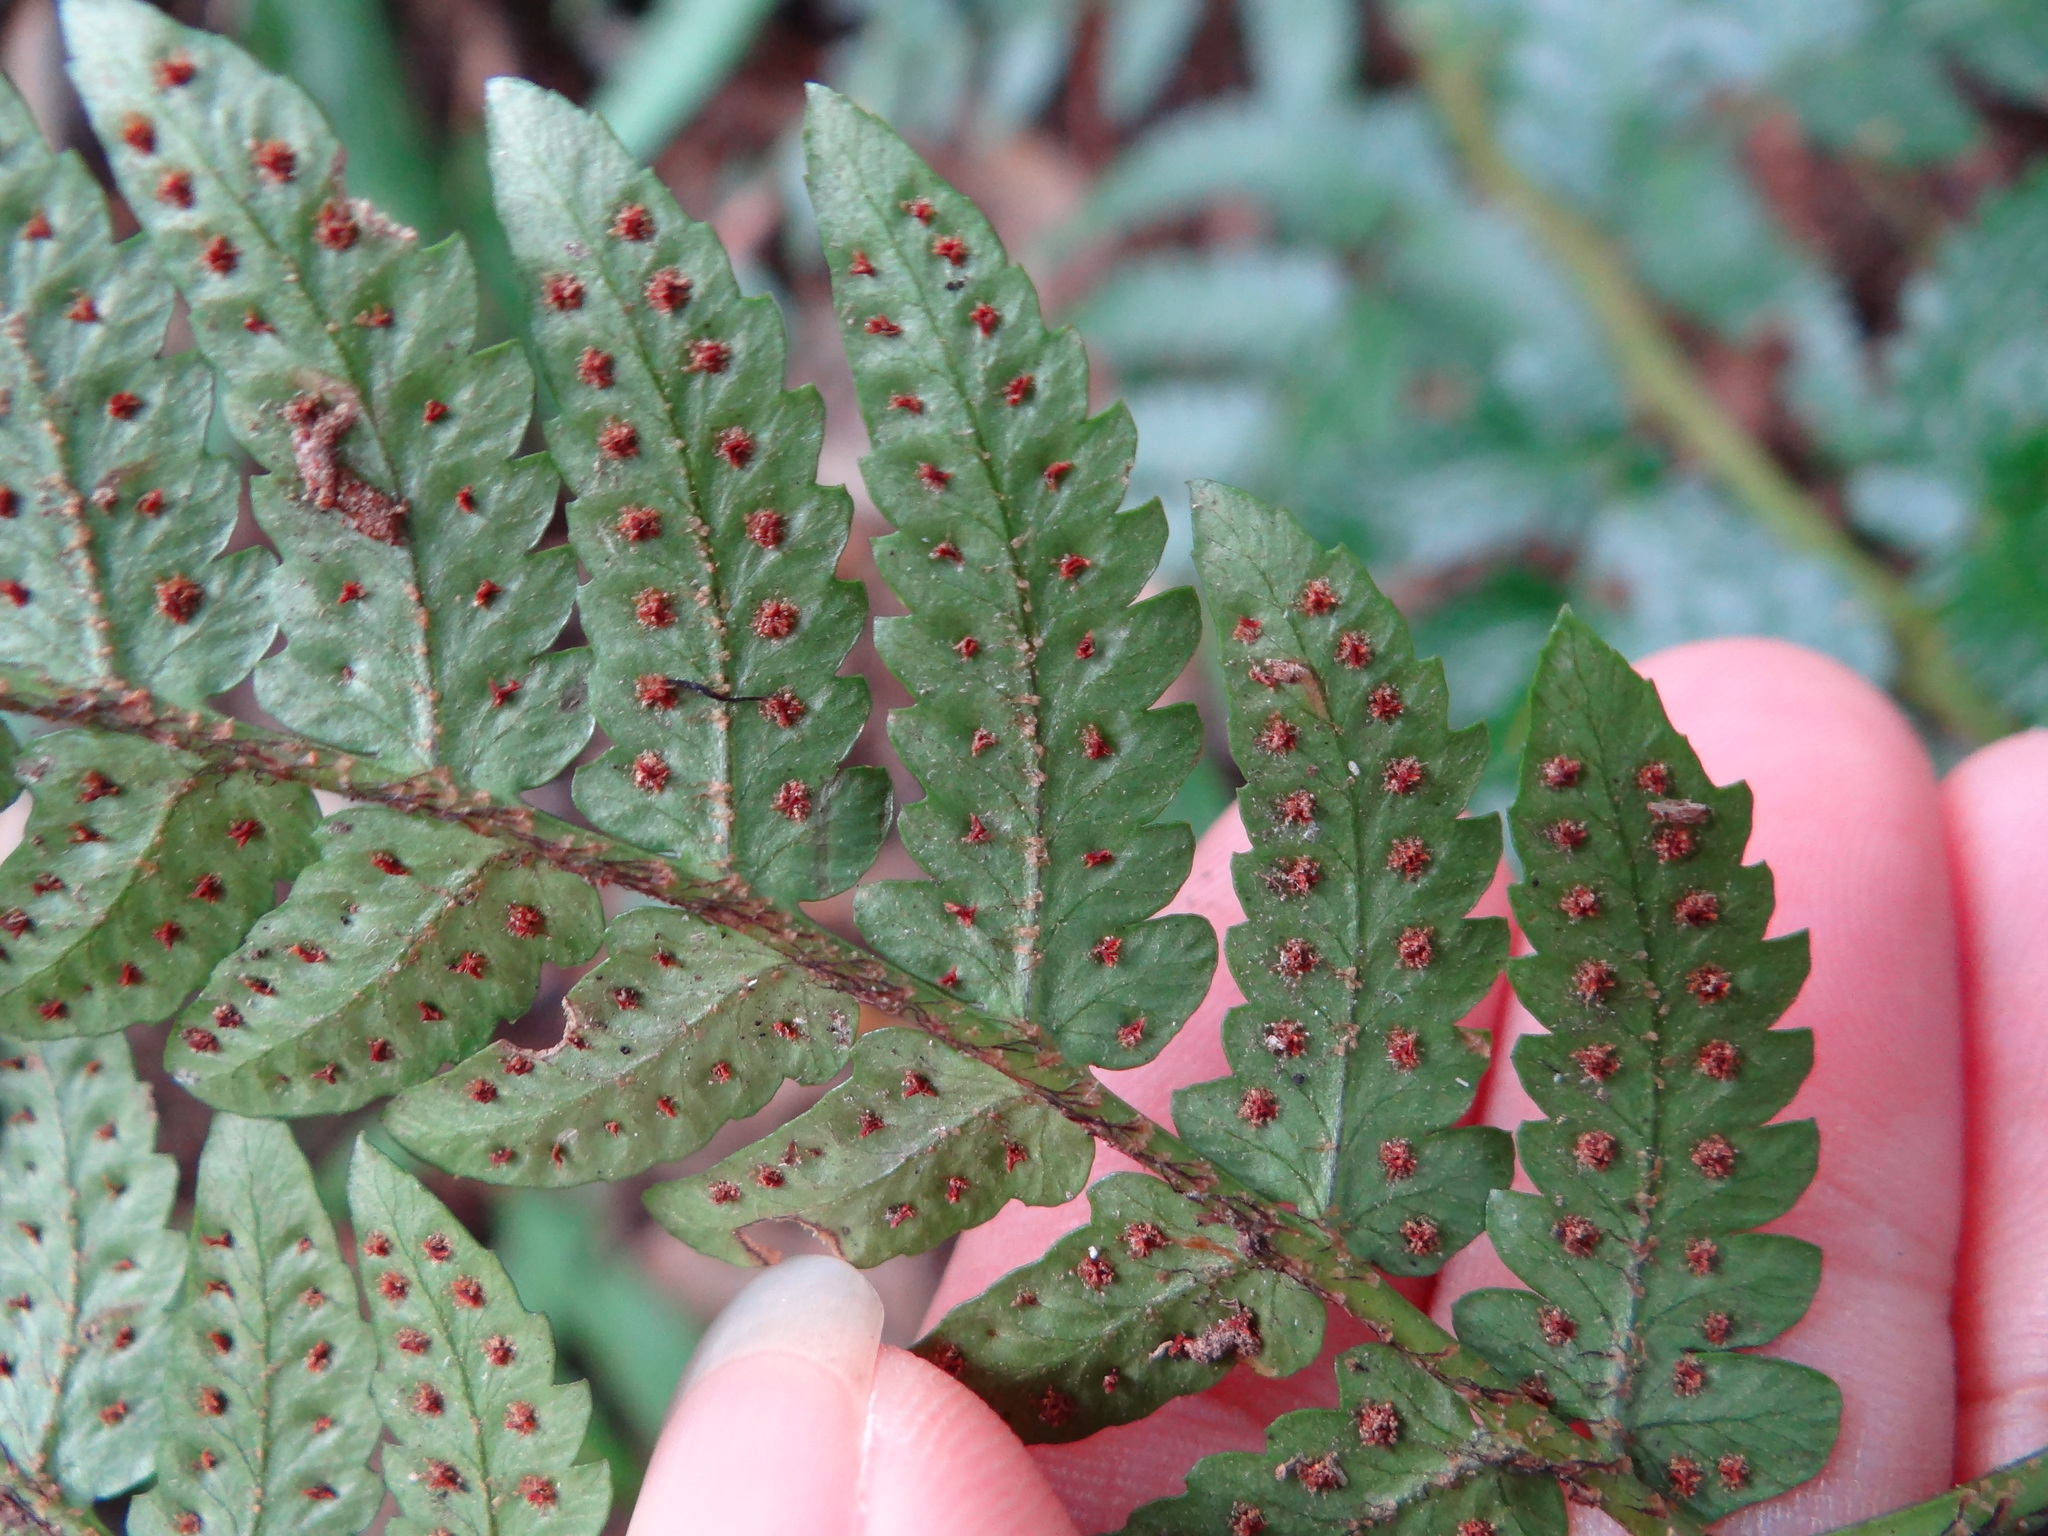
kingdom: Plantae
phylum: Tracheophyta
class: Polypodiopsida
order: Polypodiales
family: Dryopteridaceae
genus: Dryopteris
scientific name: Dryopteris varia
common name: Japanese holly fern
